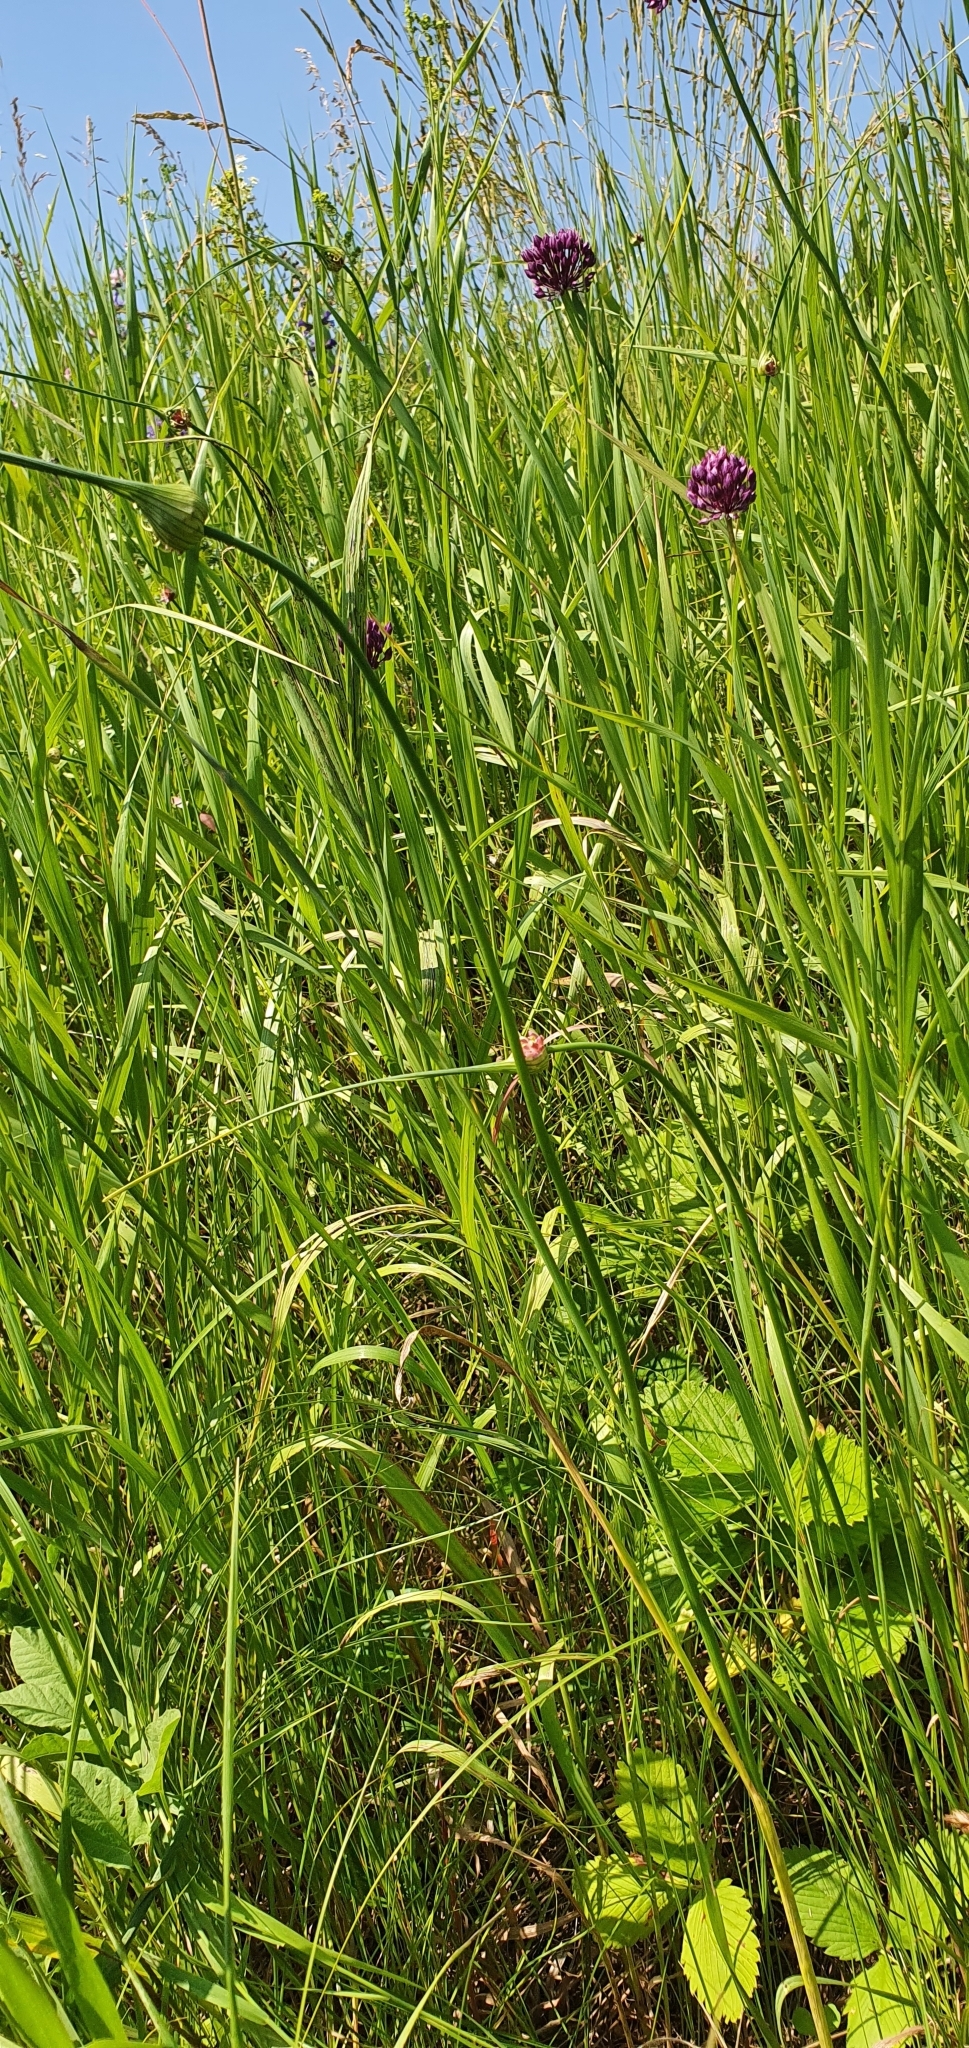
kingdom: Plantae
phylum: Tracheophyta
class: Liliopsida
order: Asparagales
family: Amaryllidaceae
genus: Allium
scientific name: Allium rotundum
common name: Sand leek
